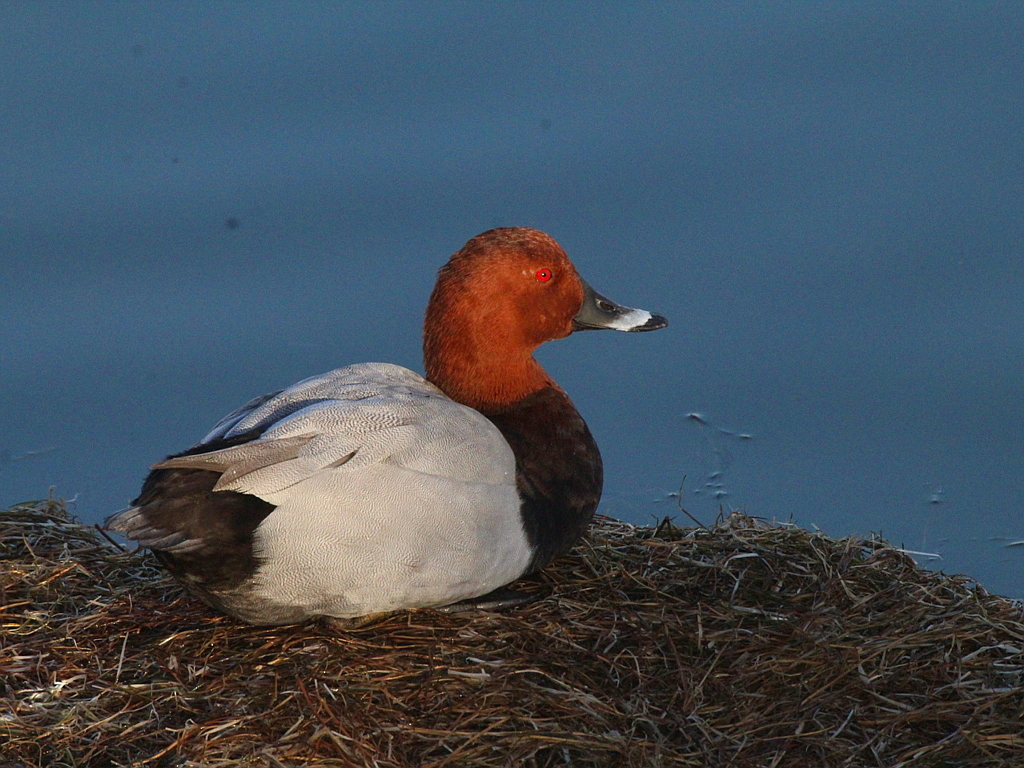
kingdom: Animalia
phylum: Chordata
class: Aves
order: Anseriformes
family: Anatidae
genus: Aythya
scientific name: Aythya ferina
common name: Common pochard
